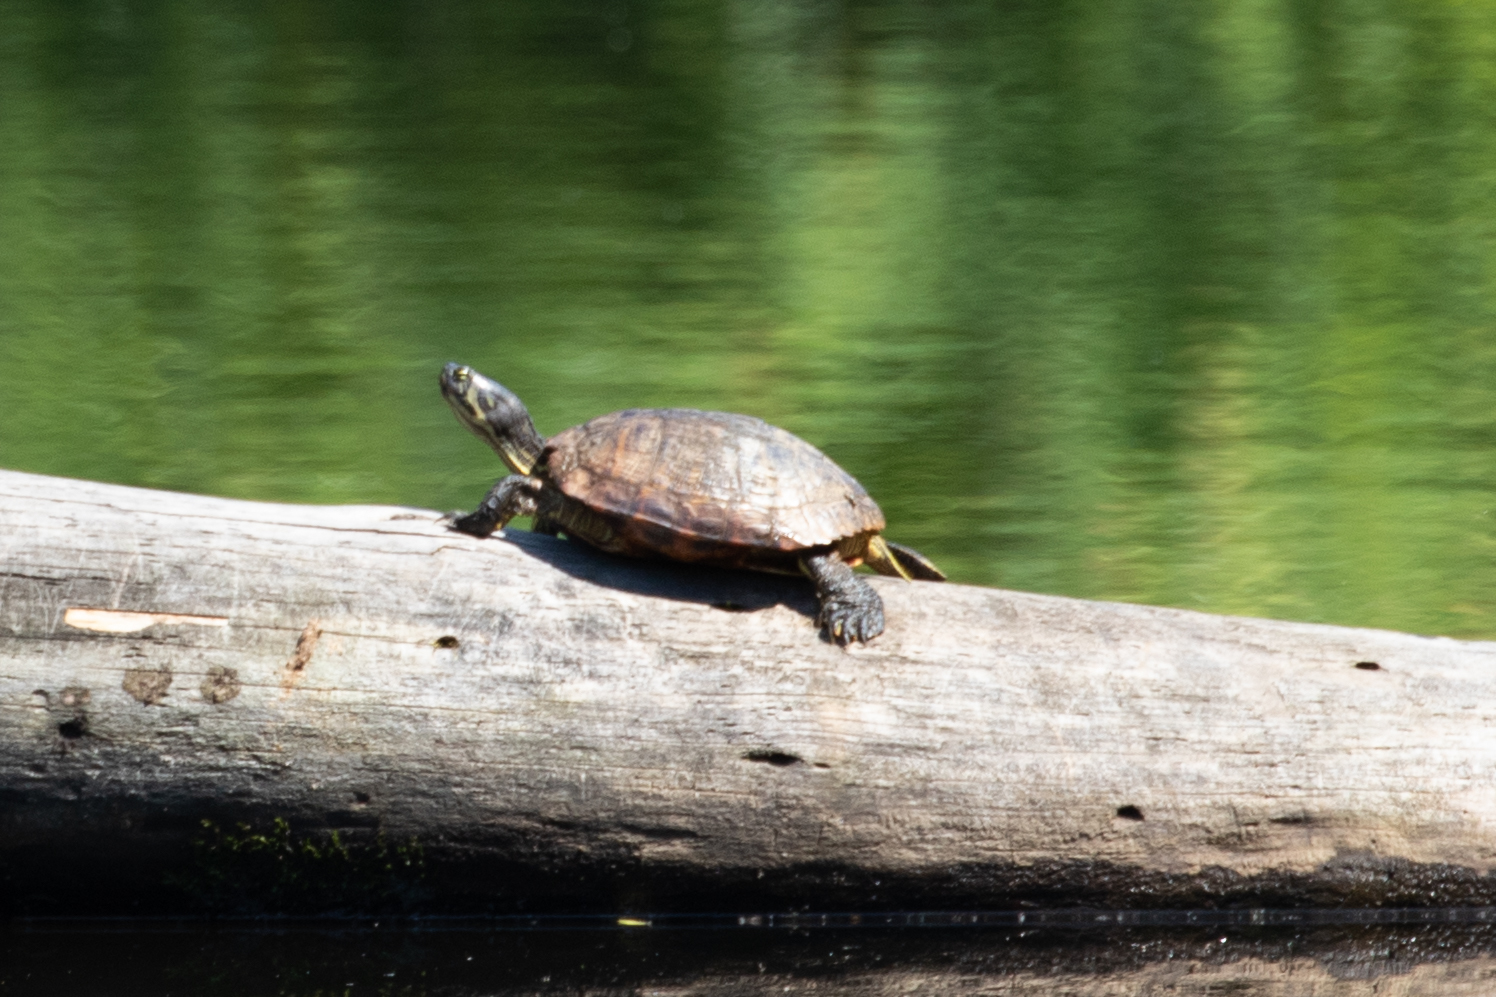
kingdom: Animalia
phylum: Chordata
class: Testudines
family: Emydidae
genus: Trachemys
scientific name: Trachemys scripta
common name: Slider
